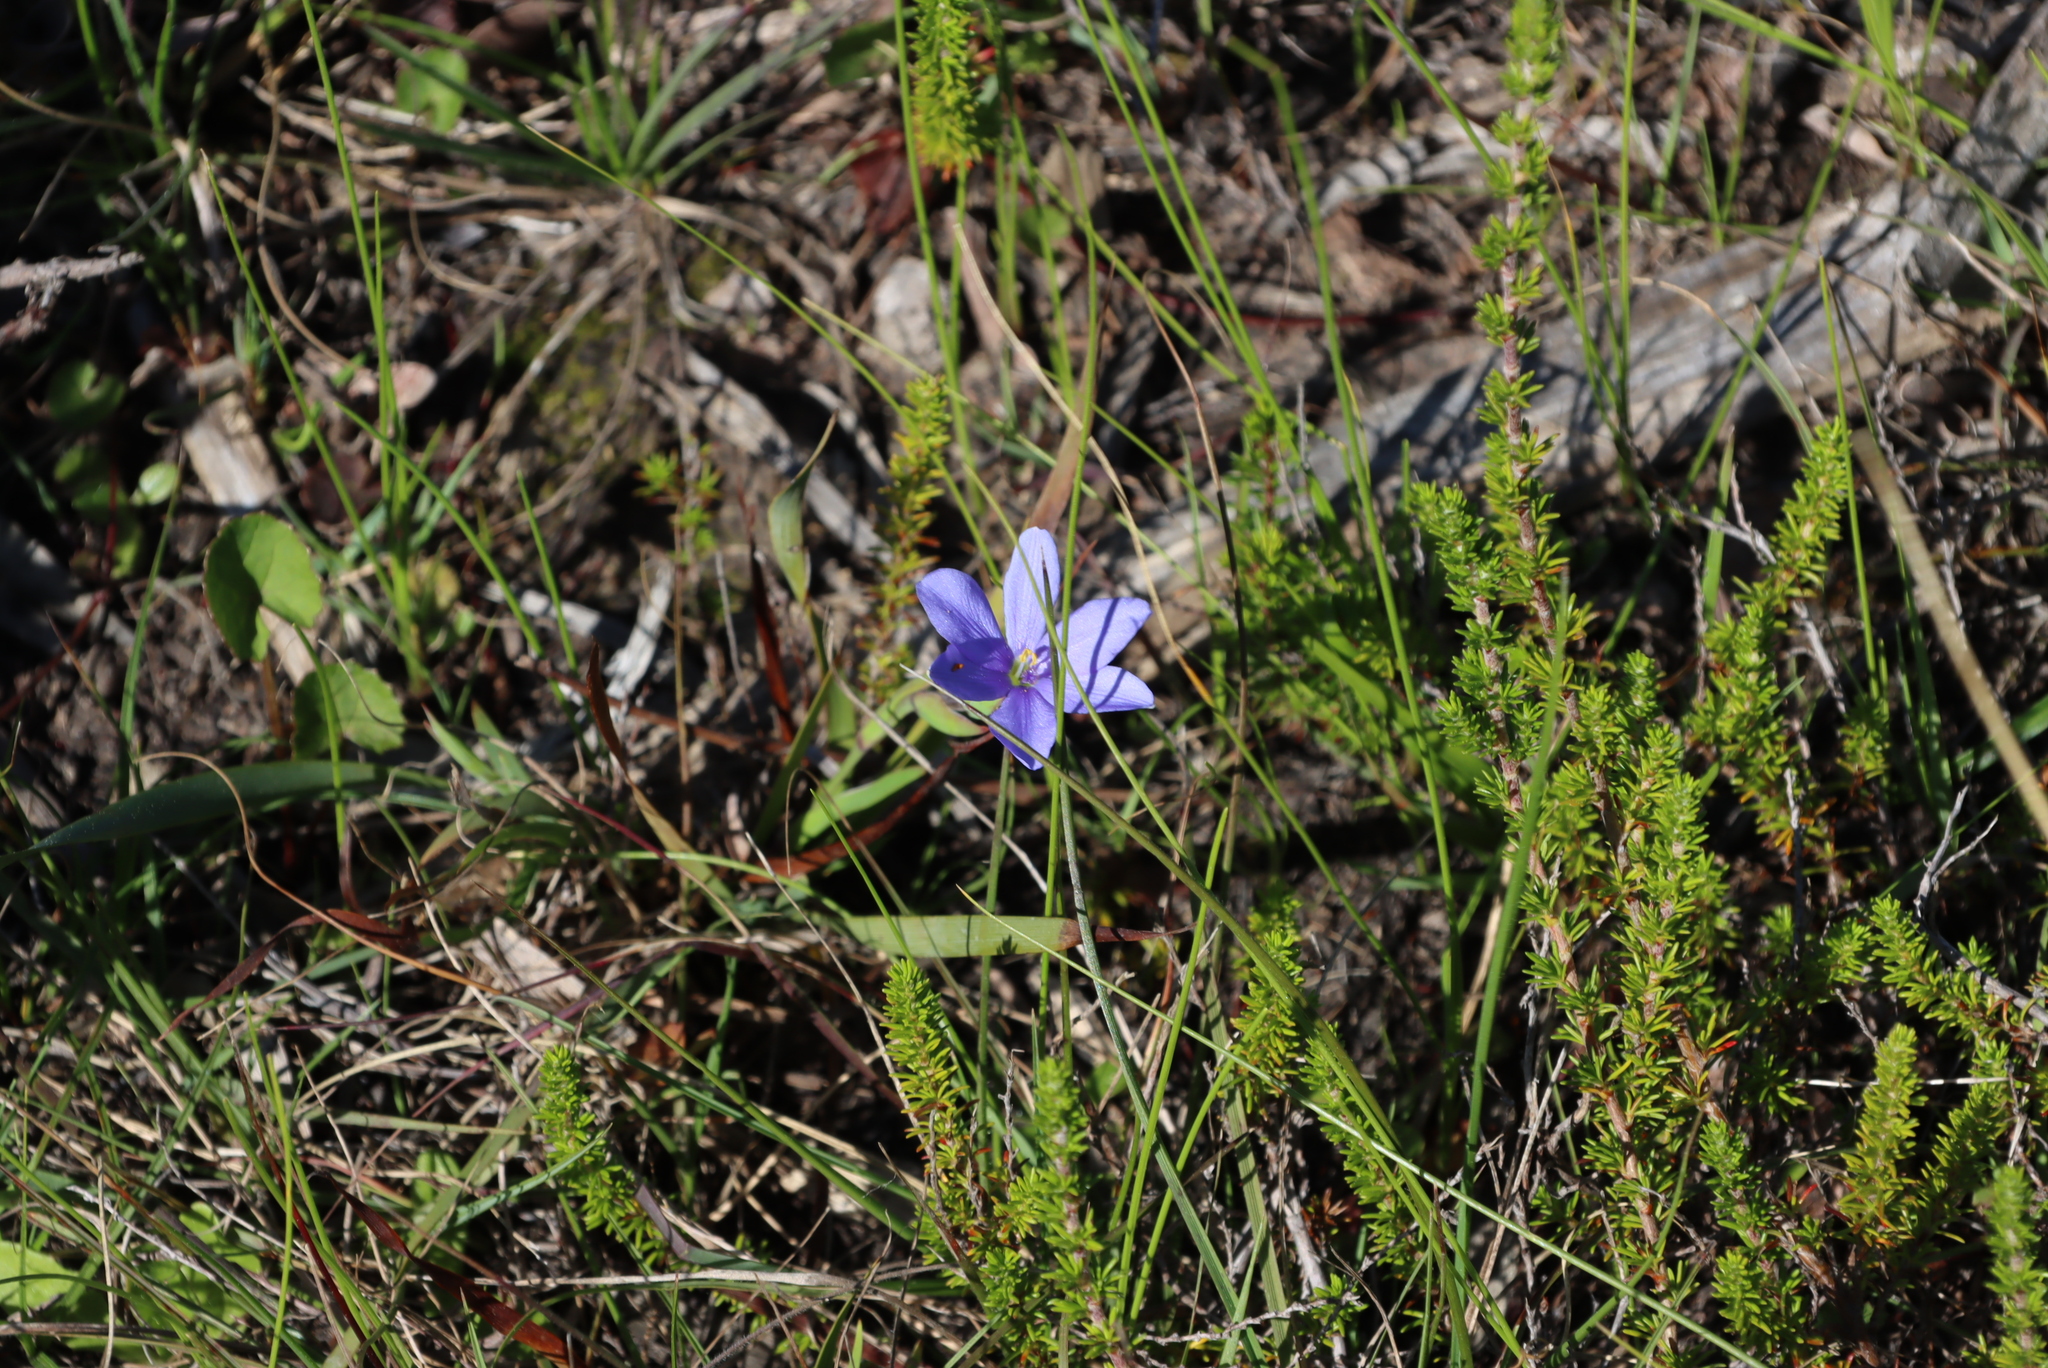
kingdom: Plantae
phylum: Tracheophyta
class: Liliopsida
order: Asparagales
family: Iridaceae
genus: Aristea
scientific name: Aristea pusilla
